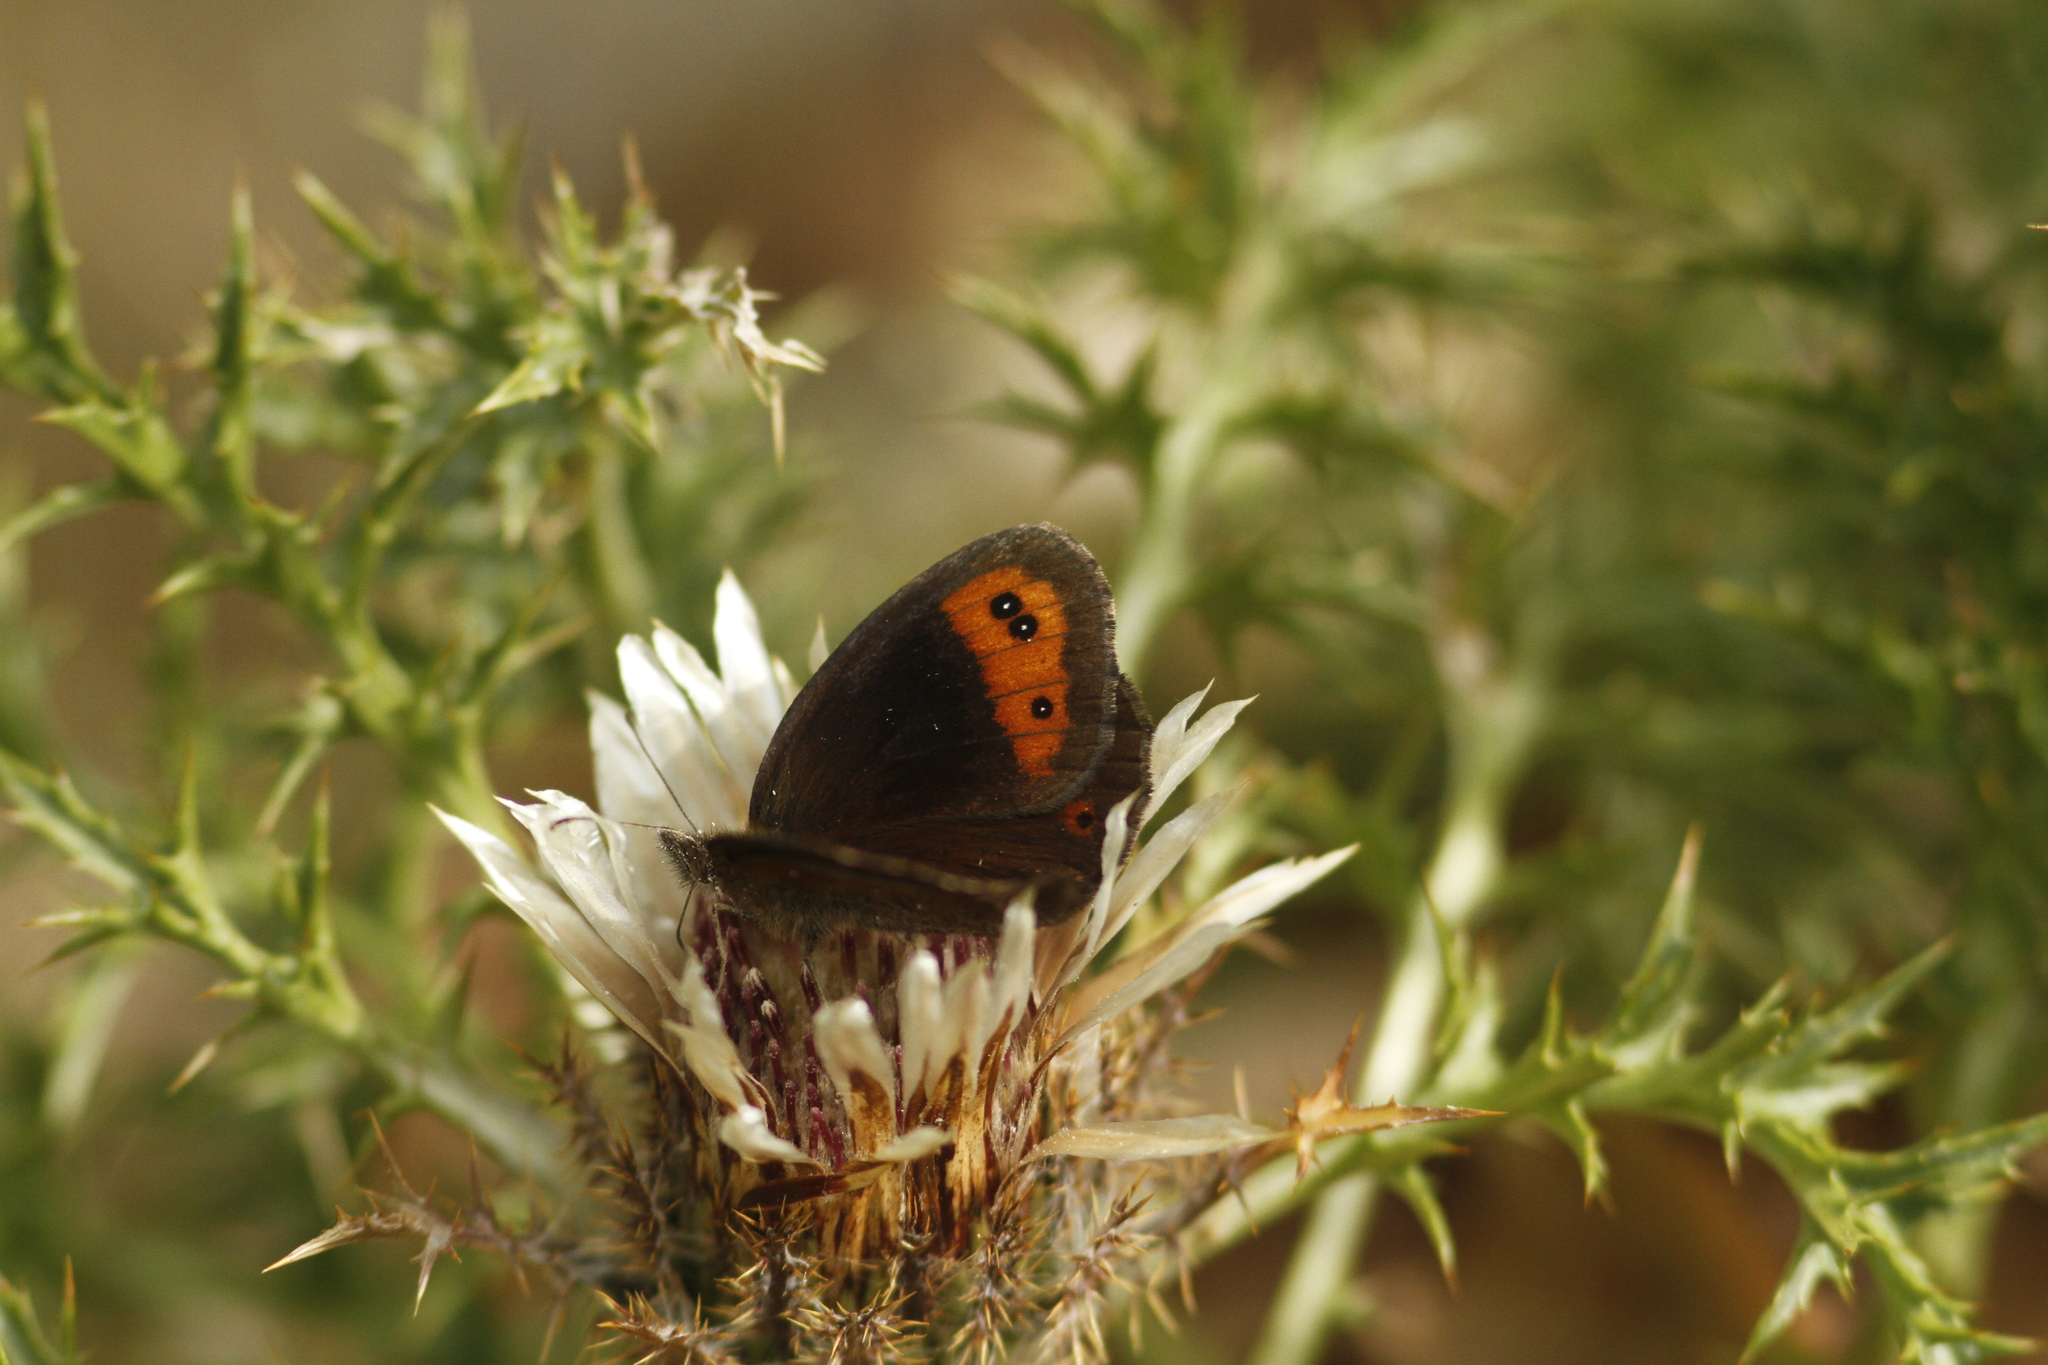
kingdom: Animalia
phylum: Arthropoda
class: Insecta
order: Lepidoptera
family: Nymphalidae
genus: Erebia
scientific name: Erebia neoridas
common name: Autumn ringlet
